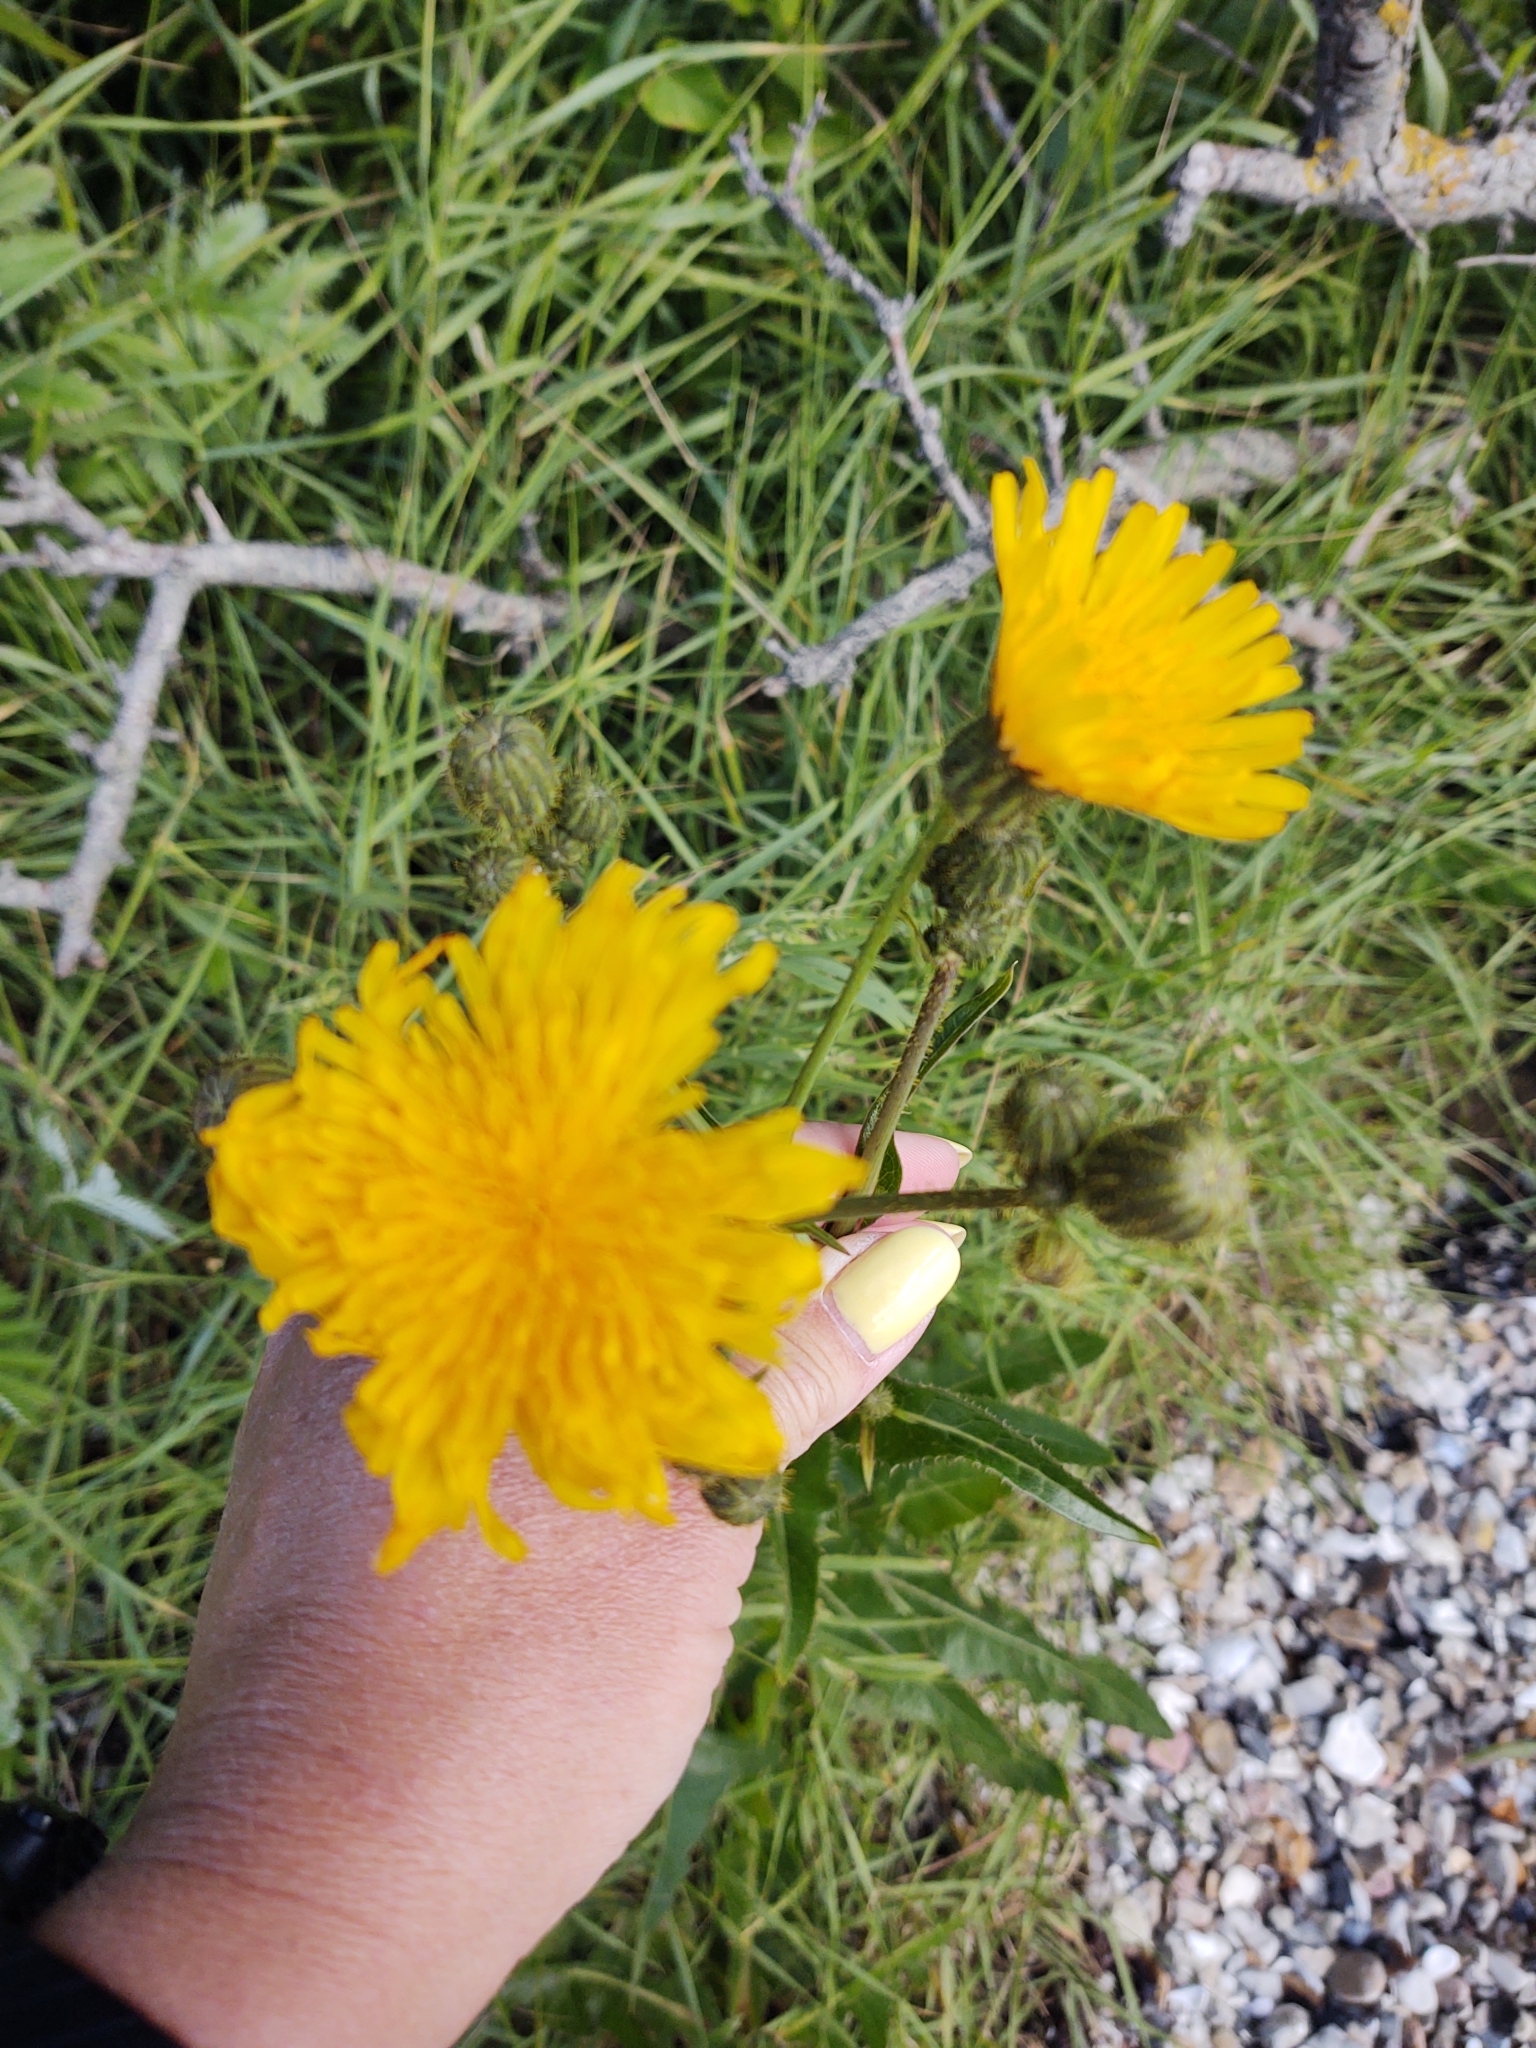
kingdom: Plantae
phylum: Tracheophyta
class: Magnoliopsida
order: Asterales
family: Asteraceae
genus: Sonchus
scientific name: Sonchus arvensis
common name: Perennial sow-thistle
